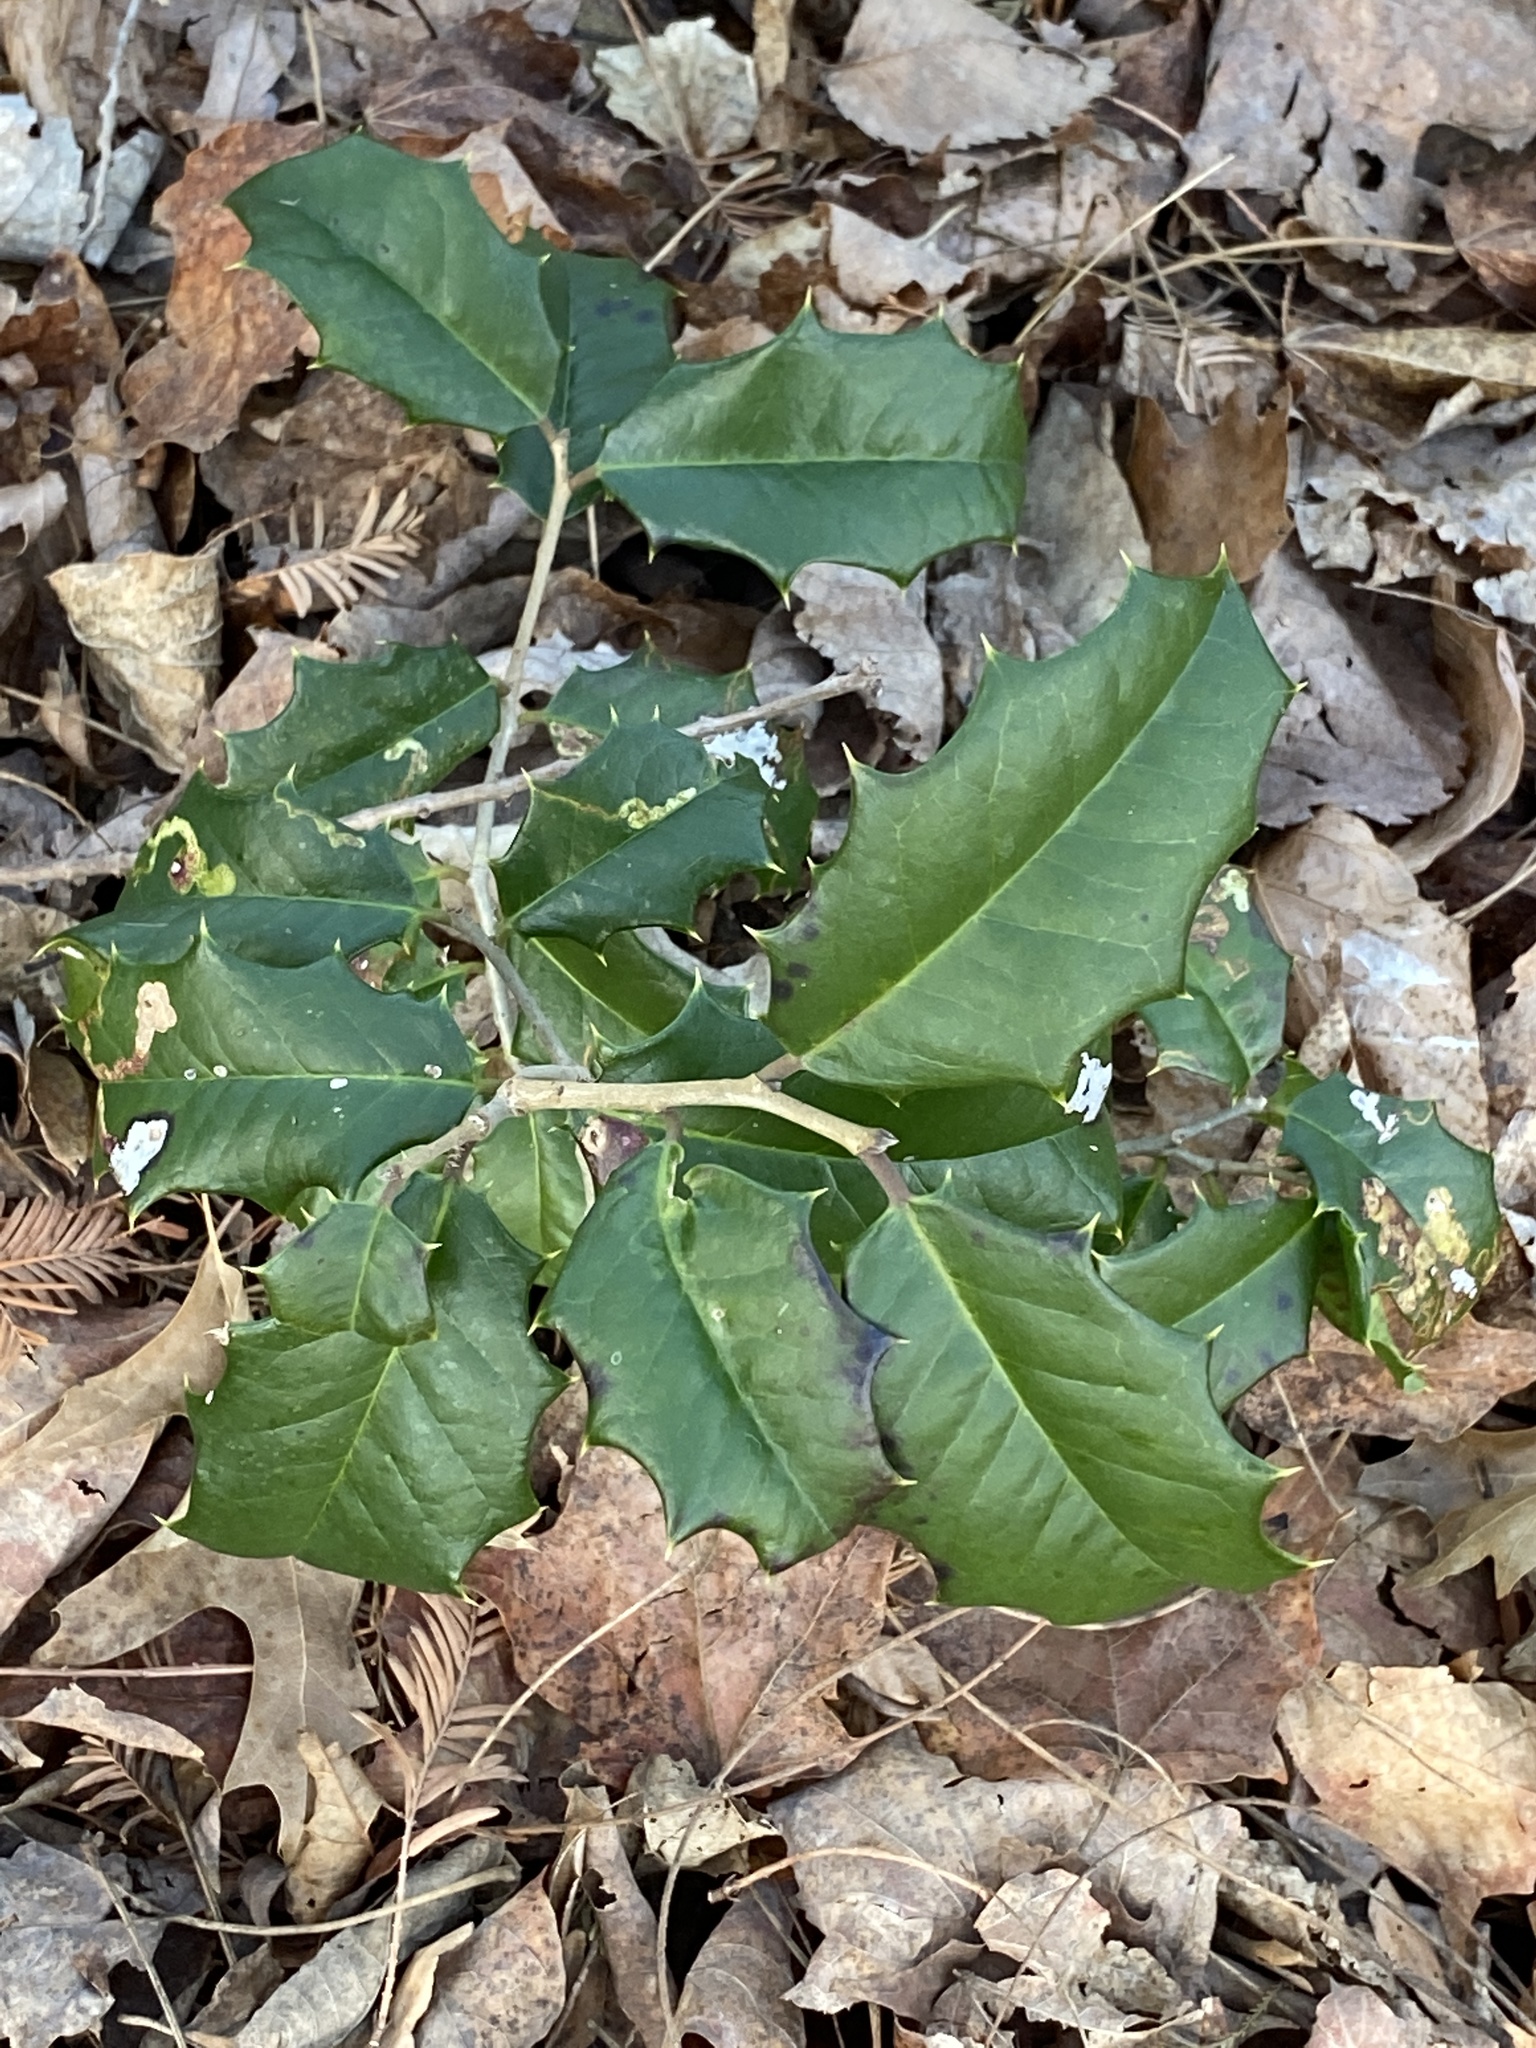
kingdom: Plantae
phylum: Tracheophyta
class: Magnoliopsida
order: Aquifoliales
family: Aquifoliaceae
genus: Ilex
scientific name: Ilex opaca
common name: American holly
